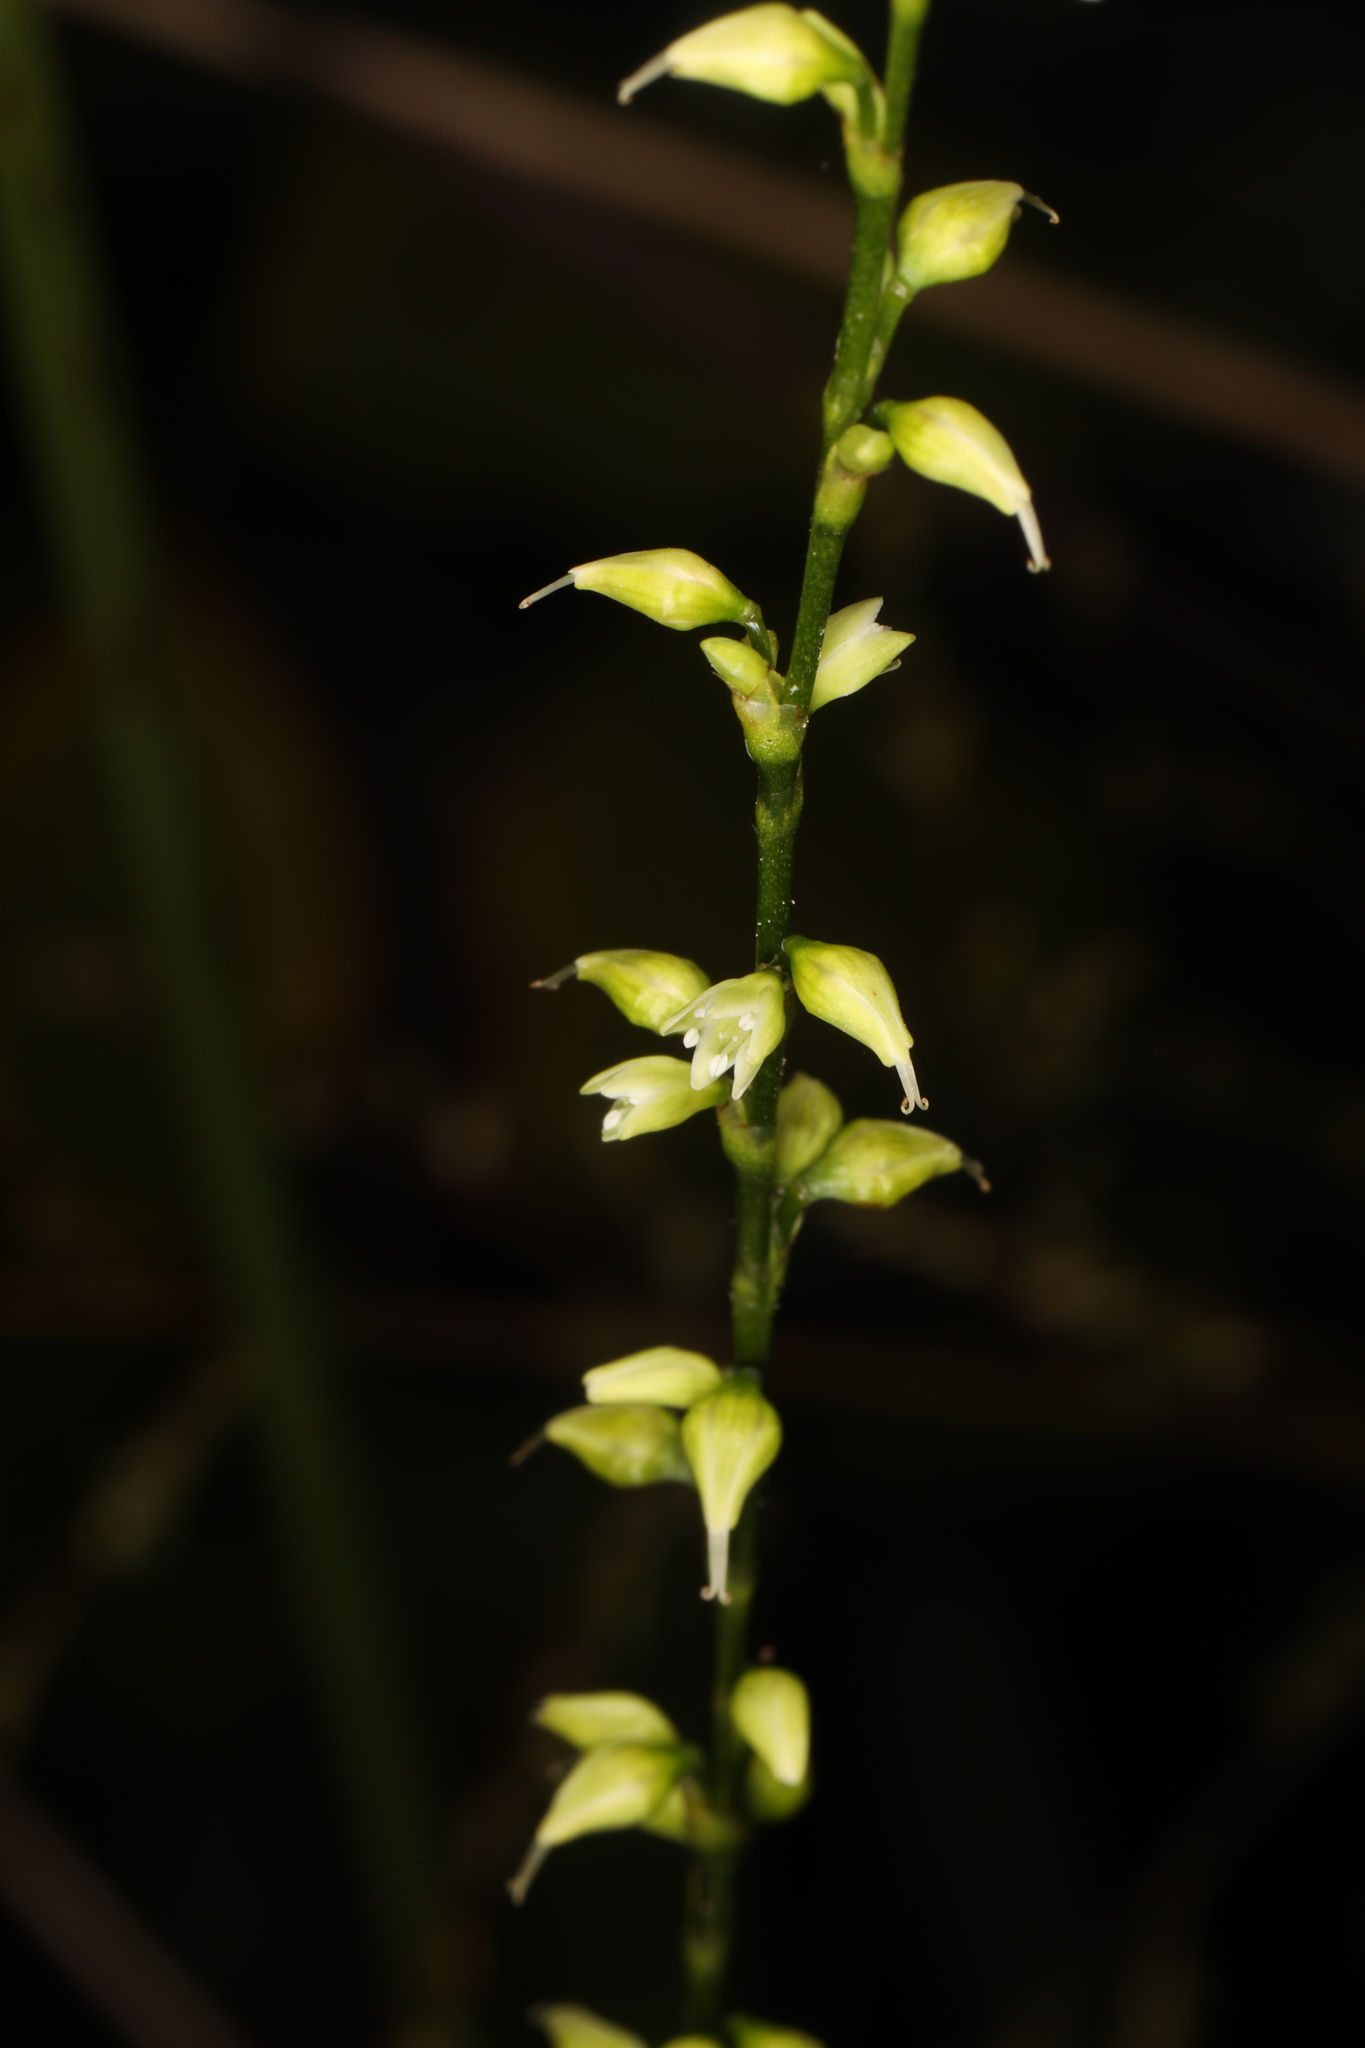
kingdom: Plantae
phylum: Tracheophyta
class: Magnoliopsida
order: Caryophyllales
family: Polygonaceae
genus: Persicaria
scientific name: Persicaria virginiana
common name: Jumpseed
